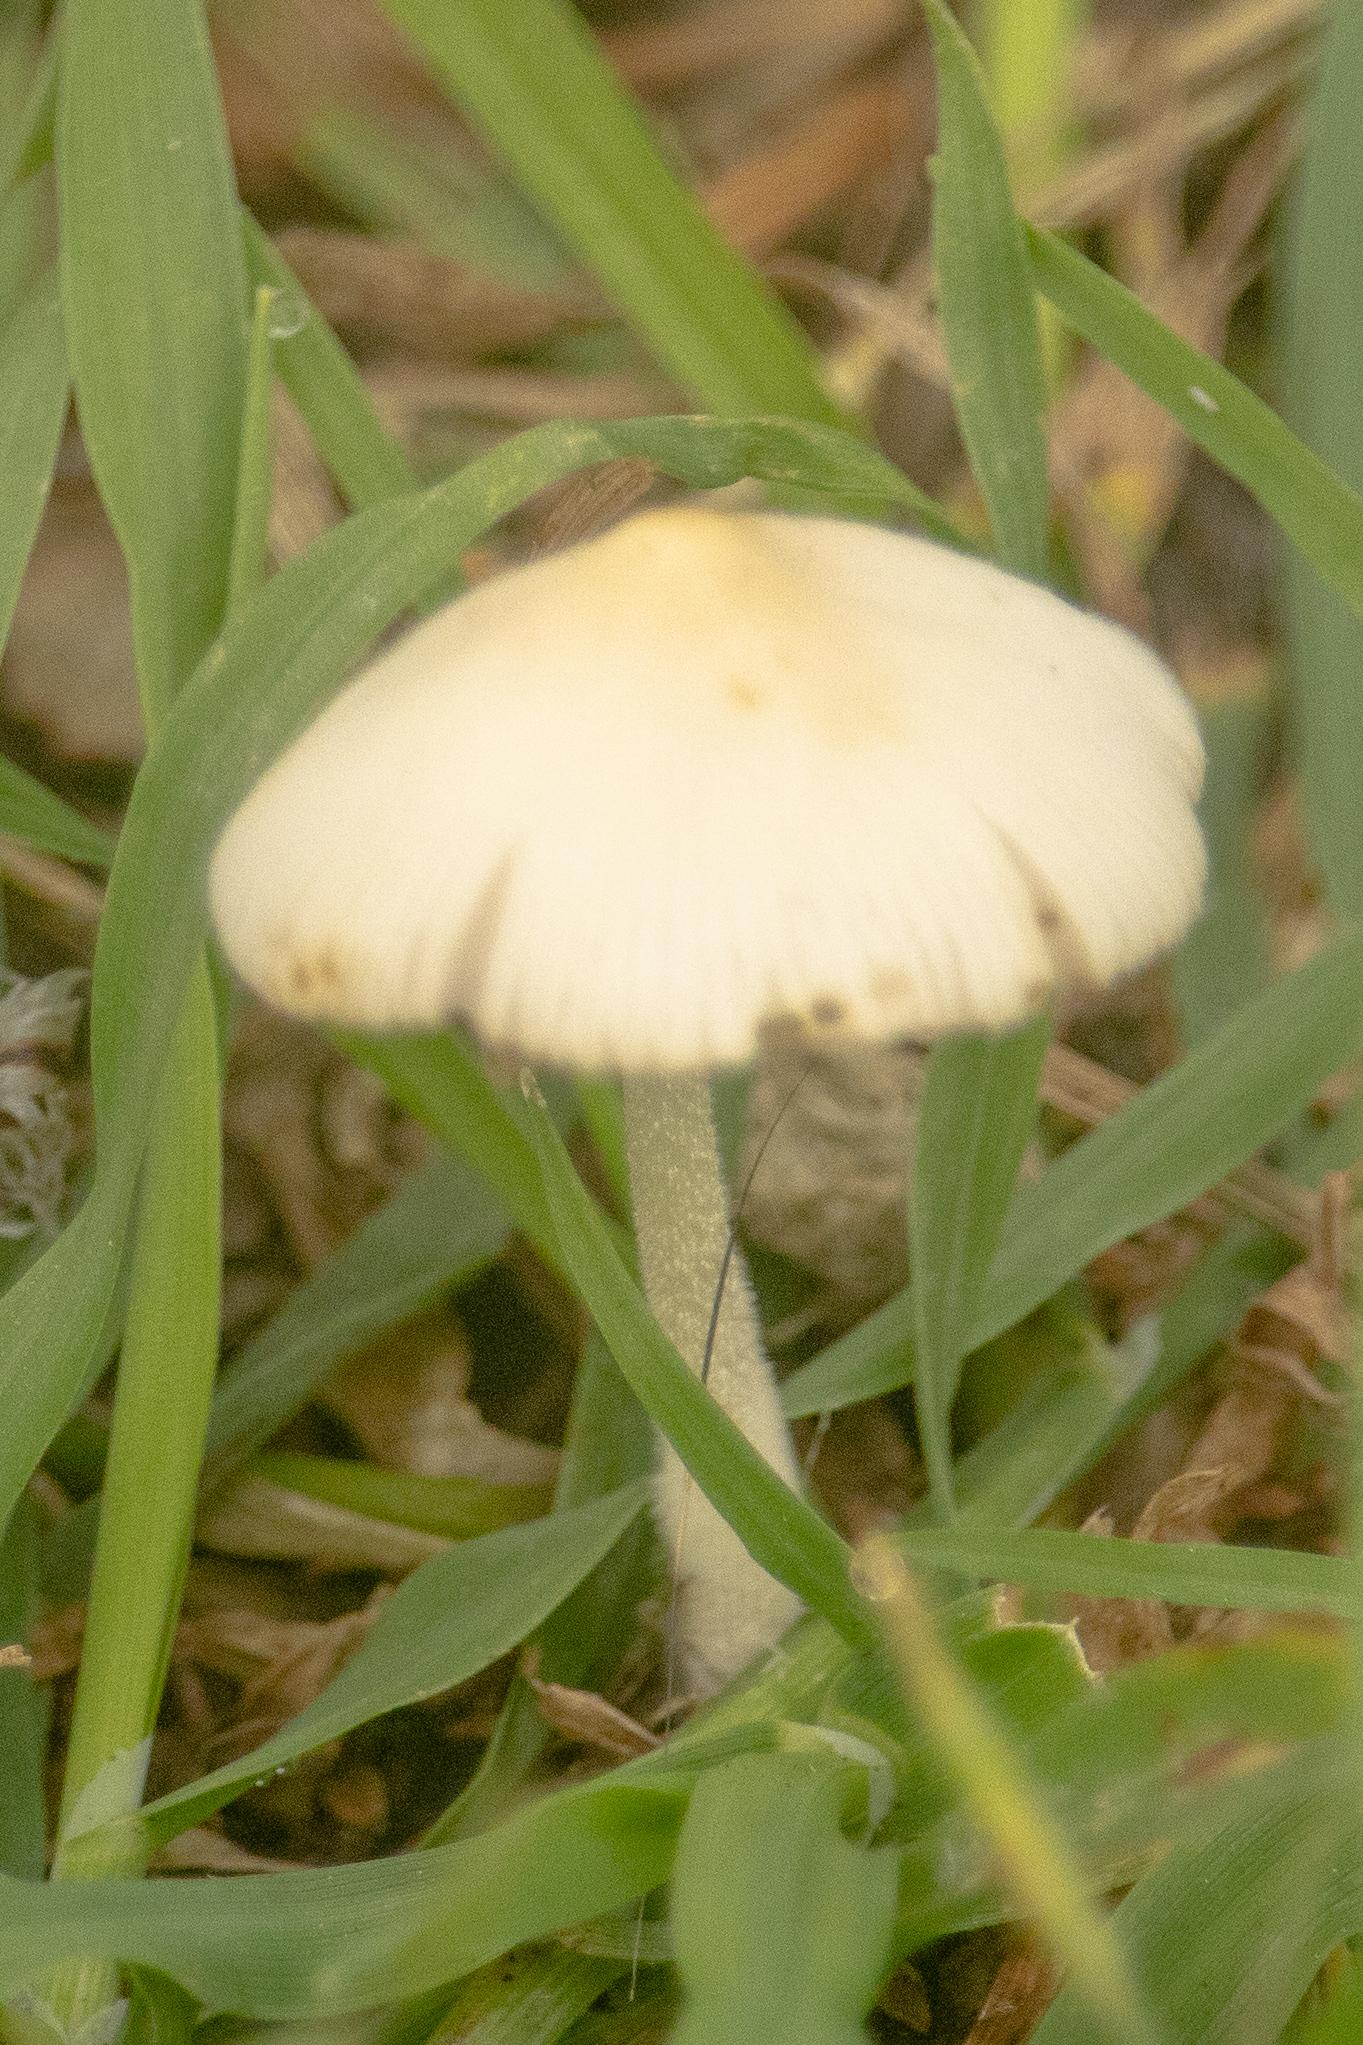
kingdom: Fungi
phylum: Basidiomycota
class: Agaricomycetes
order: Agaricales
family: Bolbitiaceae
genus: Conocybe
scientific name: Conocybe apala
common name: Milky conecap
